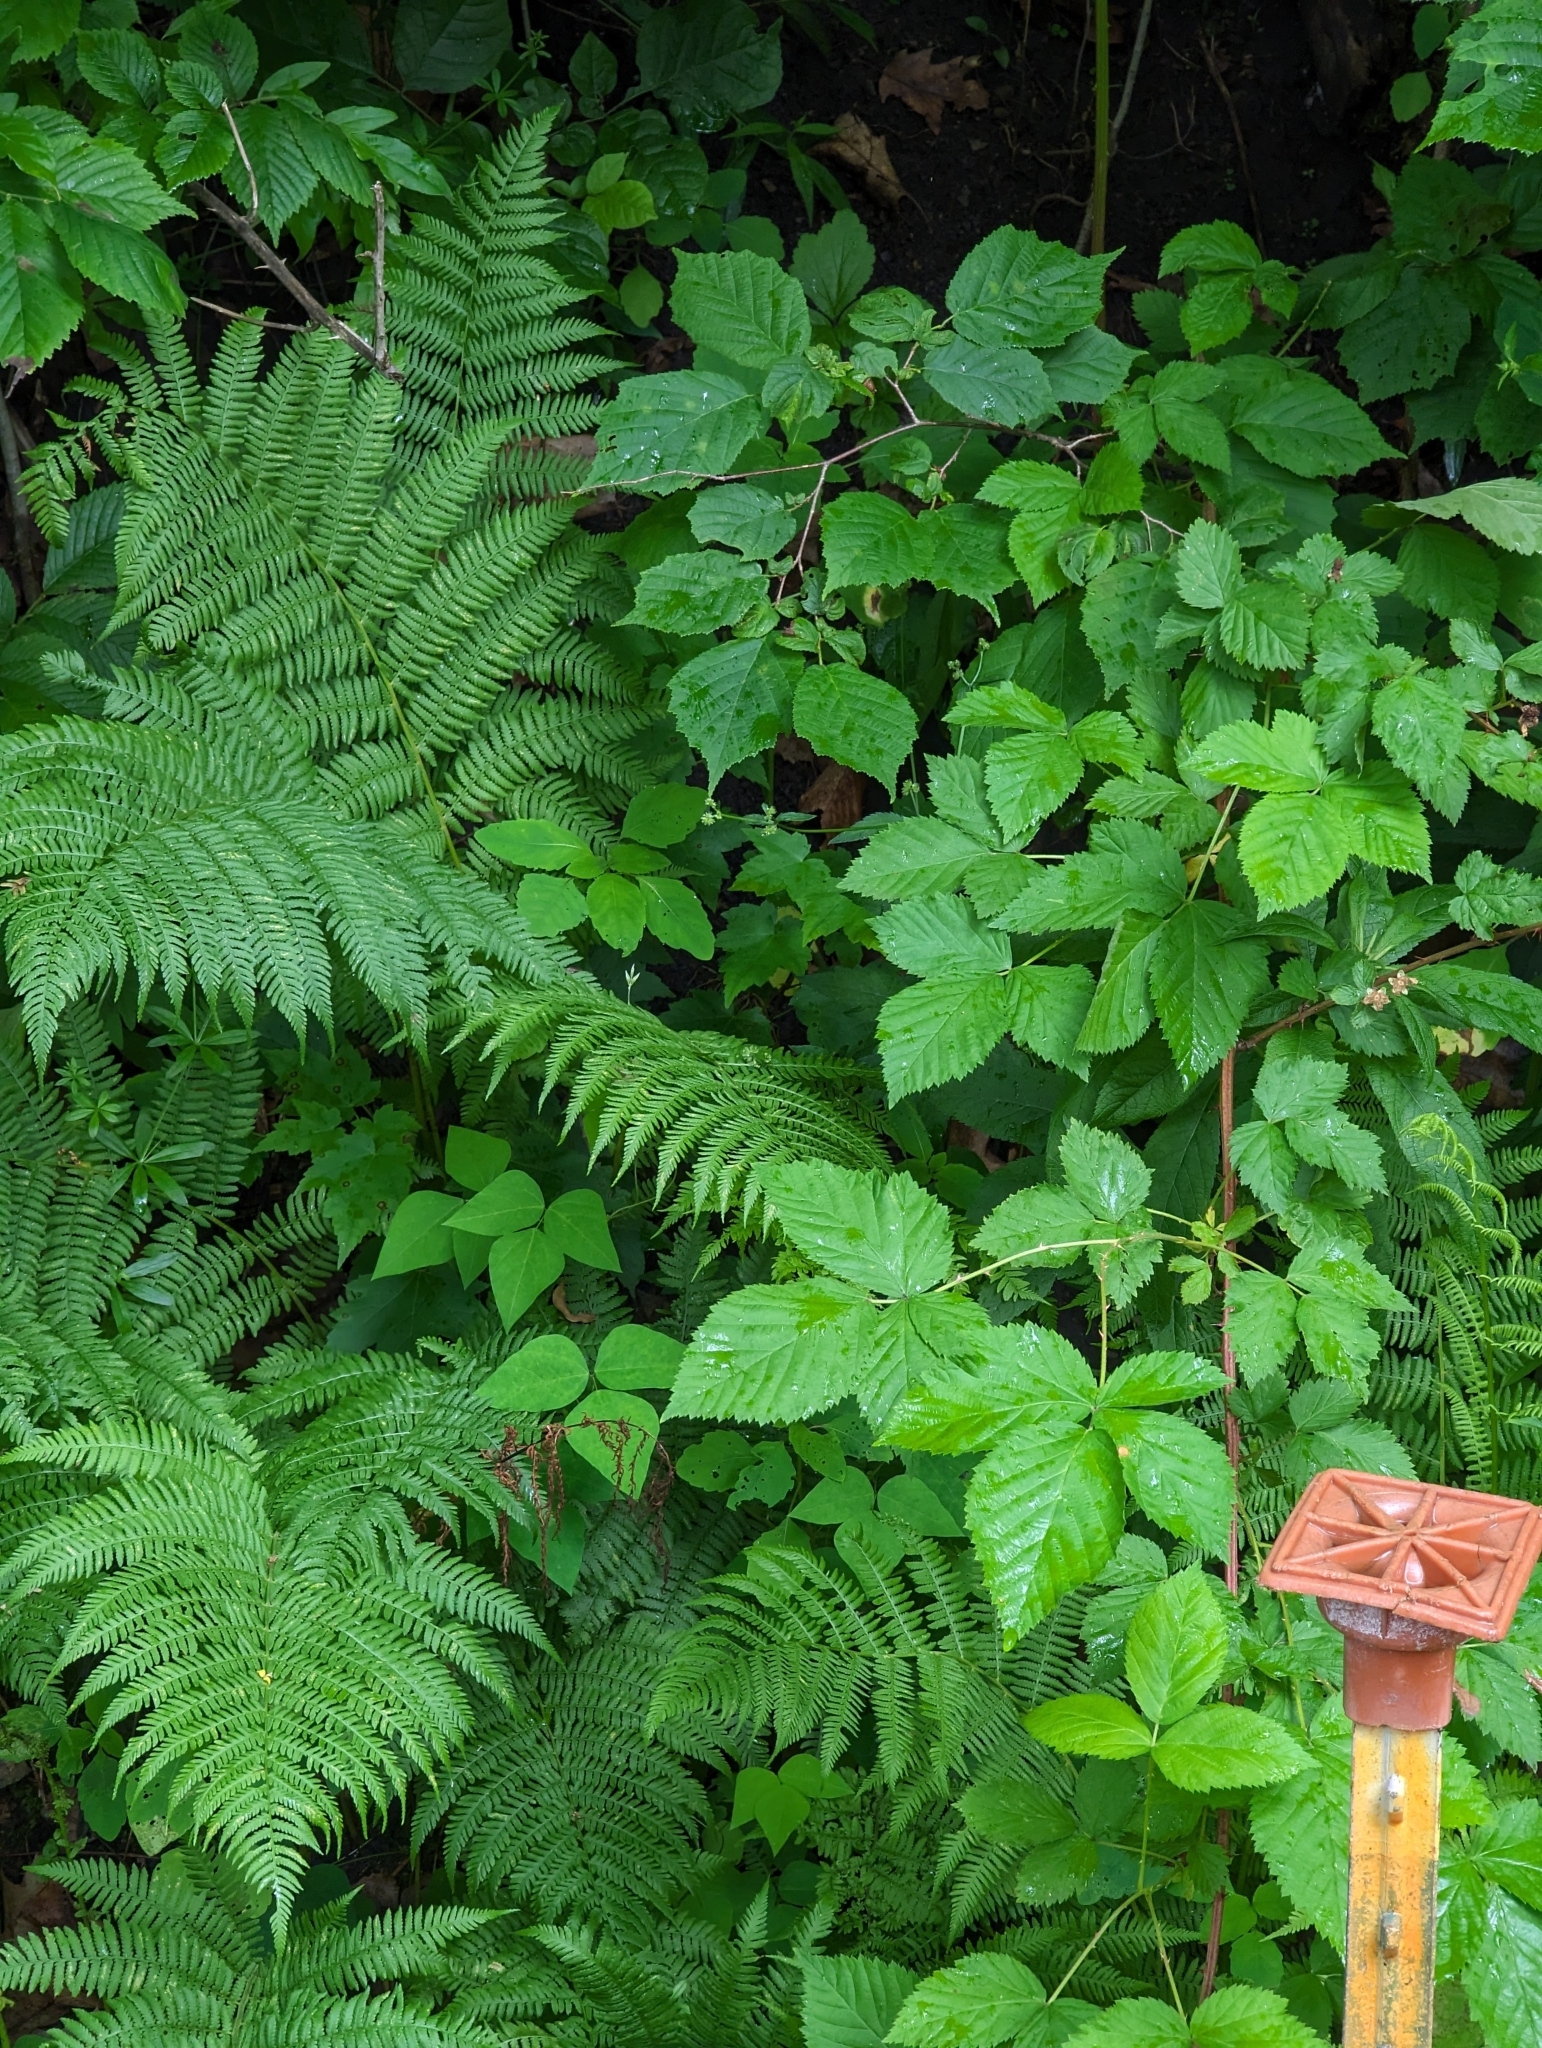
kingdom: Plantae
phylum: Tracheophyta
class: Polypodiopsida
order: Polypodiales
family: Athyriaceae
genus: Athyrium
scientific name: Athyrium angustum
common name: Northern lady fern
